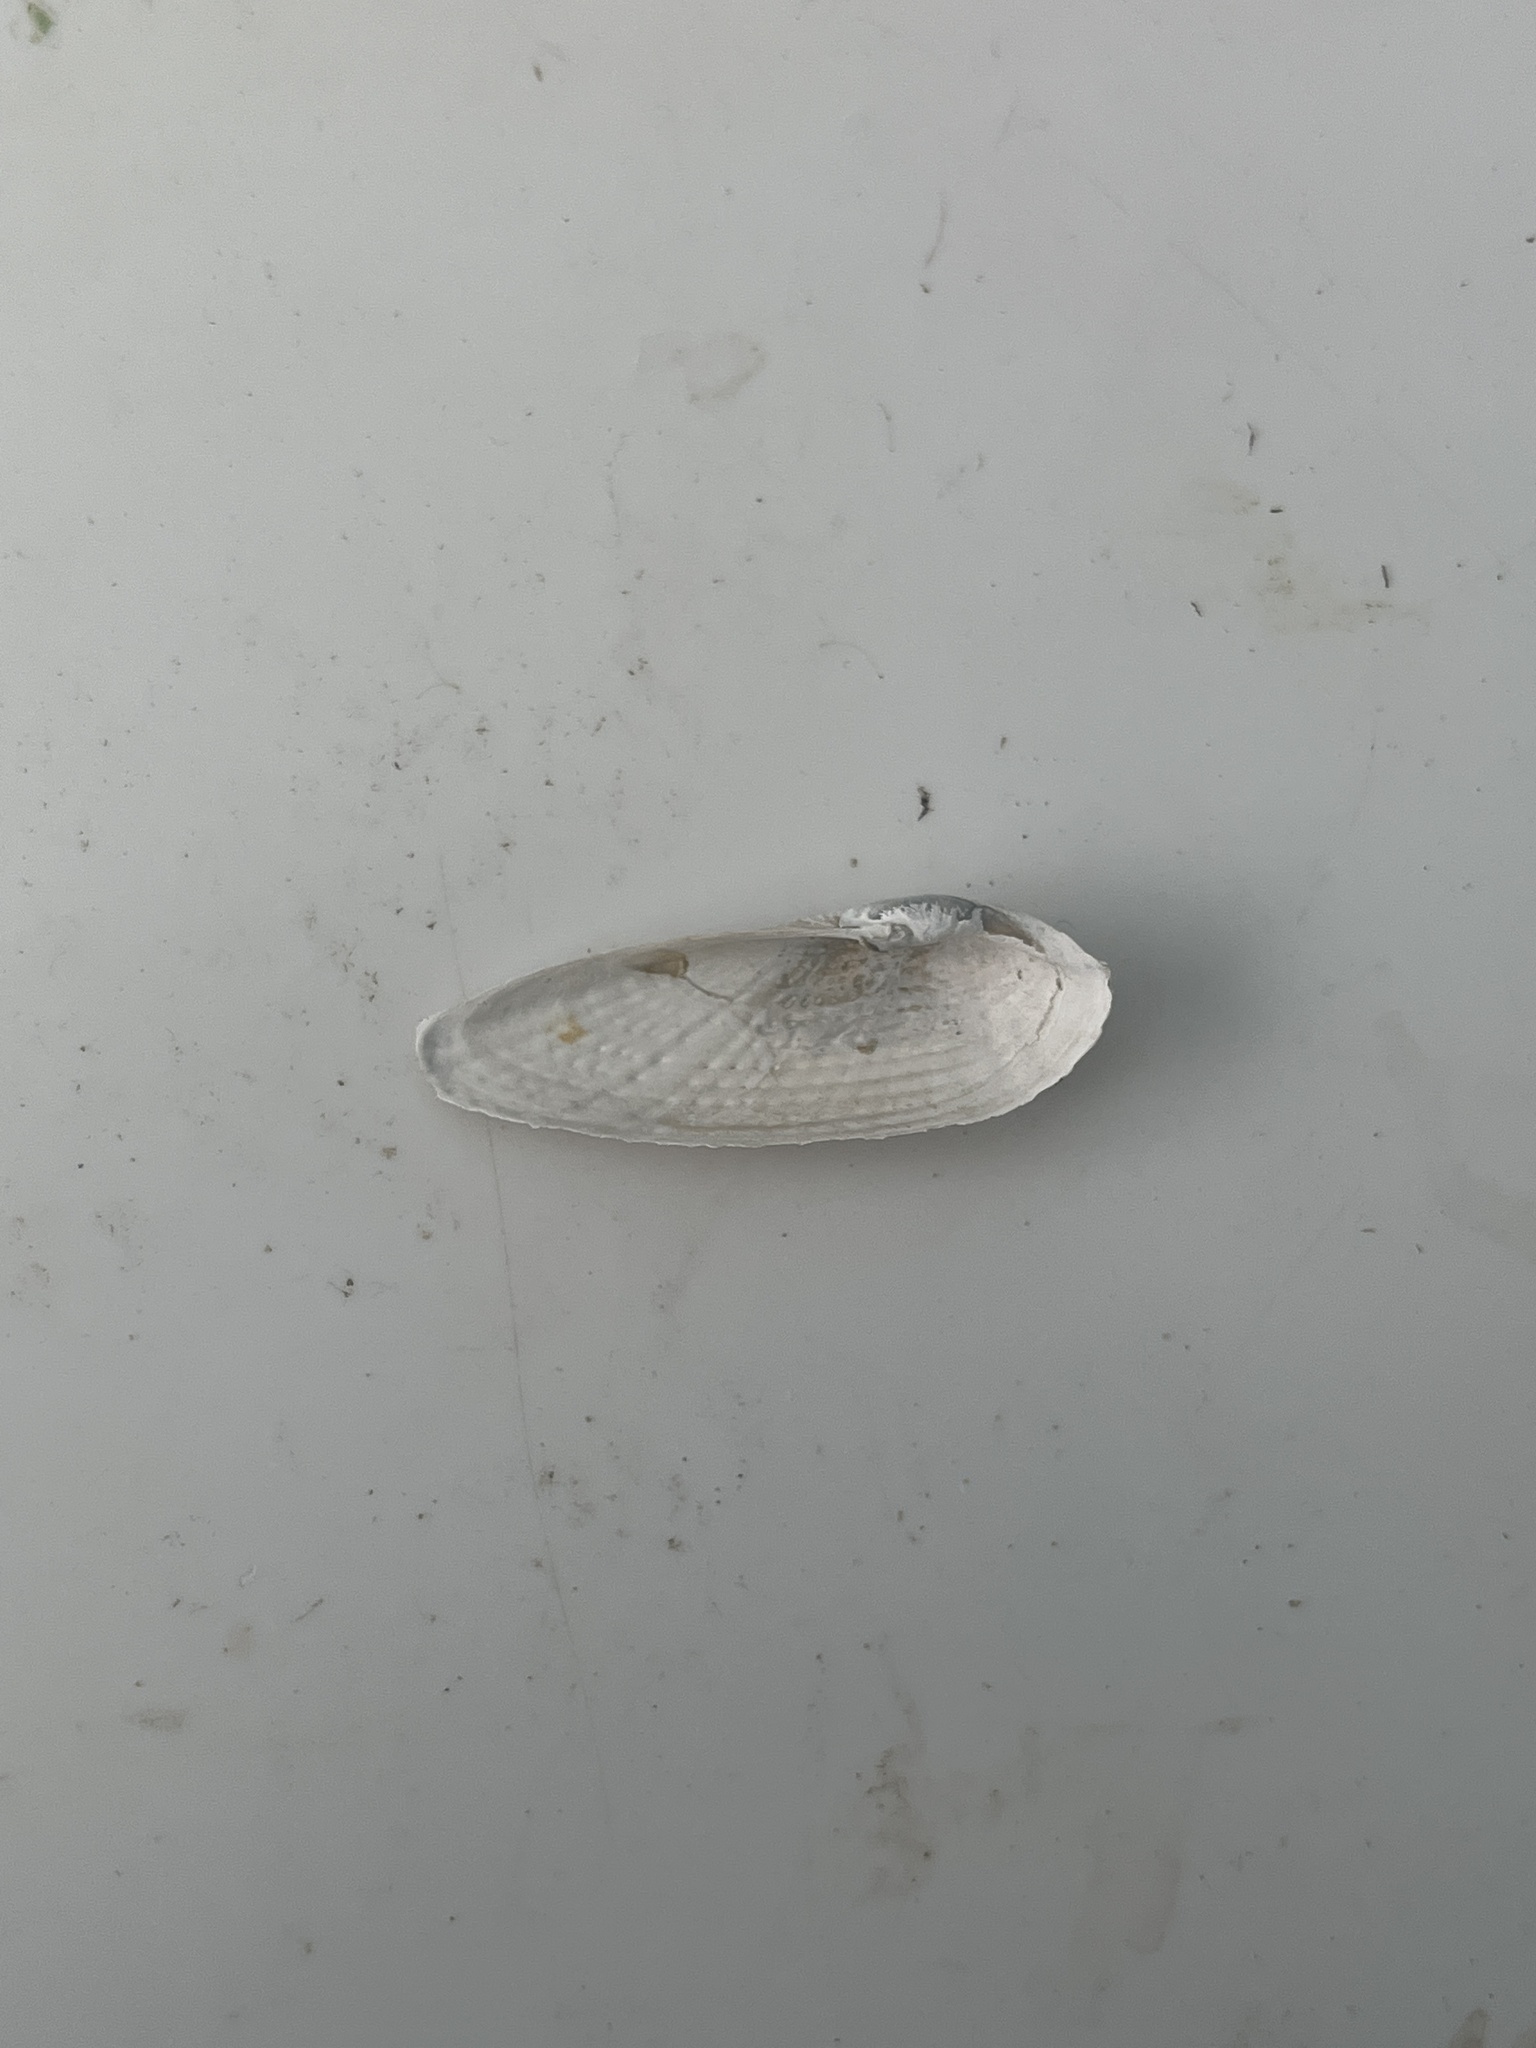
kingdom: Animalia
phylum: Mollusca
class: Bivalvia
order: Myida
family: Pholadidae
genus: Barnea
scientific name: Barnea candida
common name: White piddock
